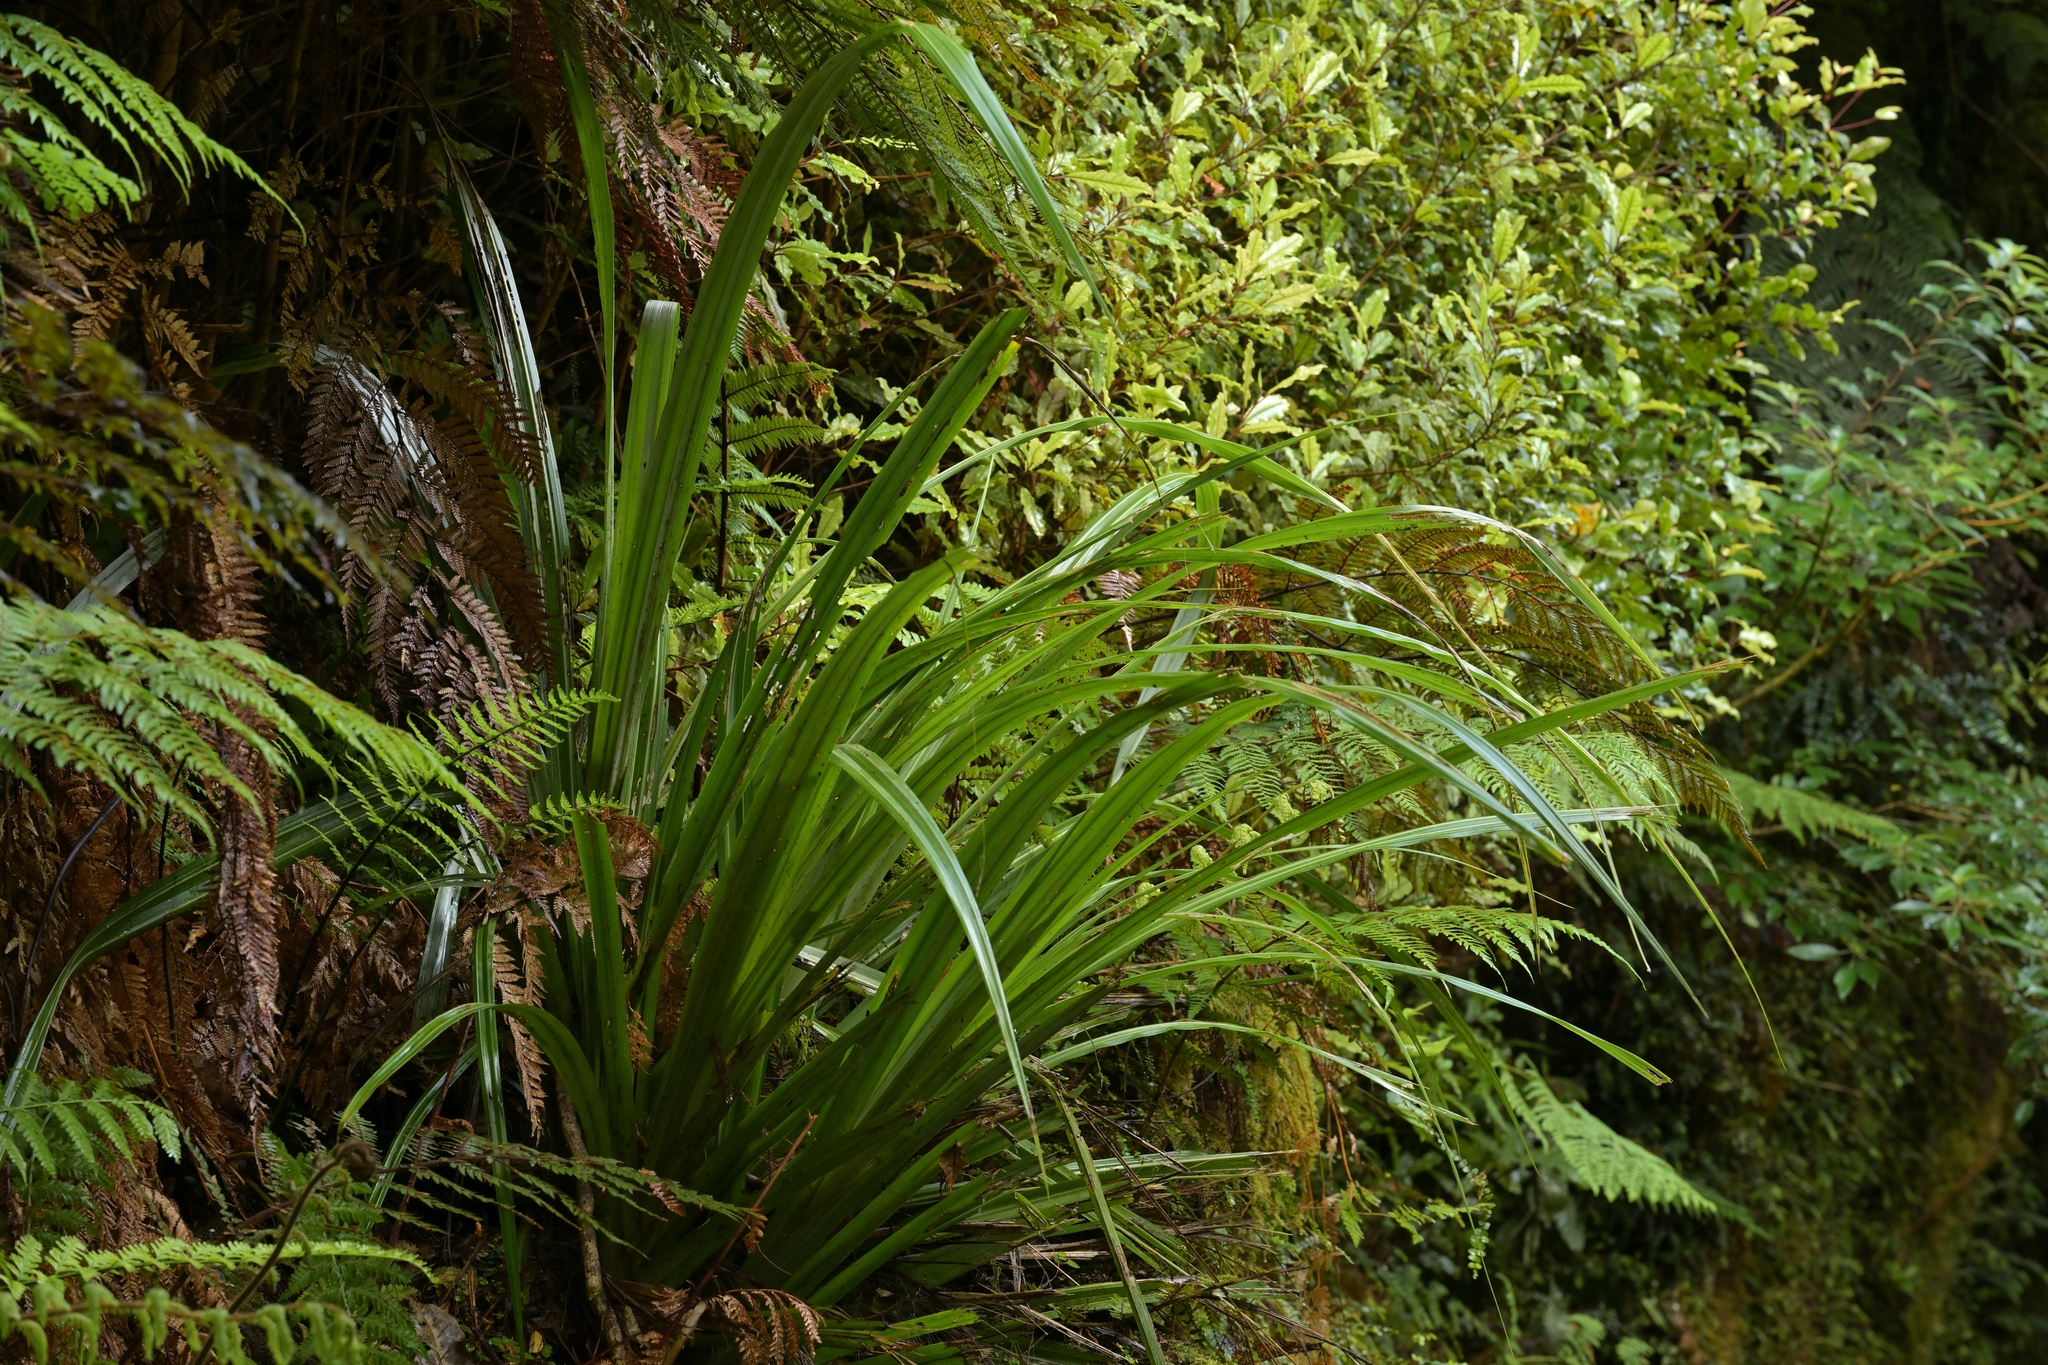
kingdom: Plantae
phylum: Tracheophyta
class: Liliopsida
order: Asparagales
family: Asteliaceae
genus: Astelia
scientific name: Astelia fragrans
